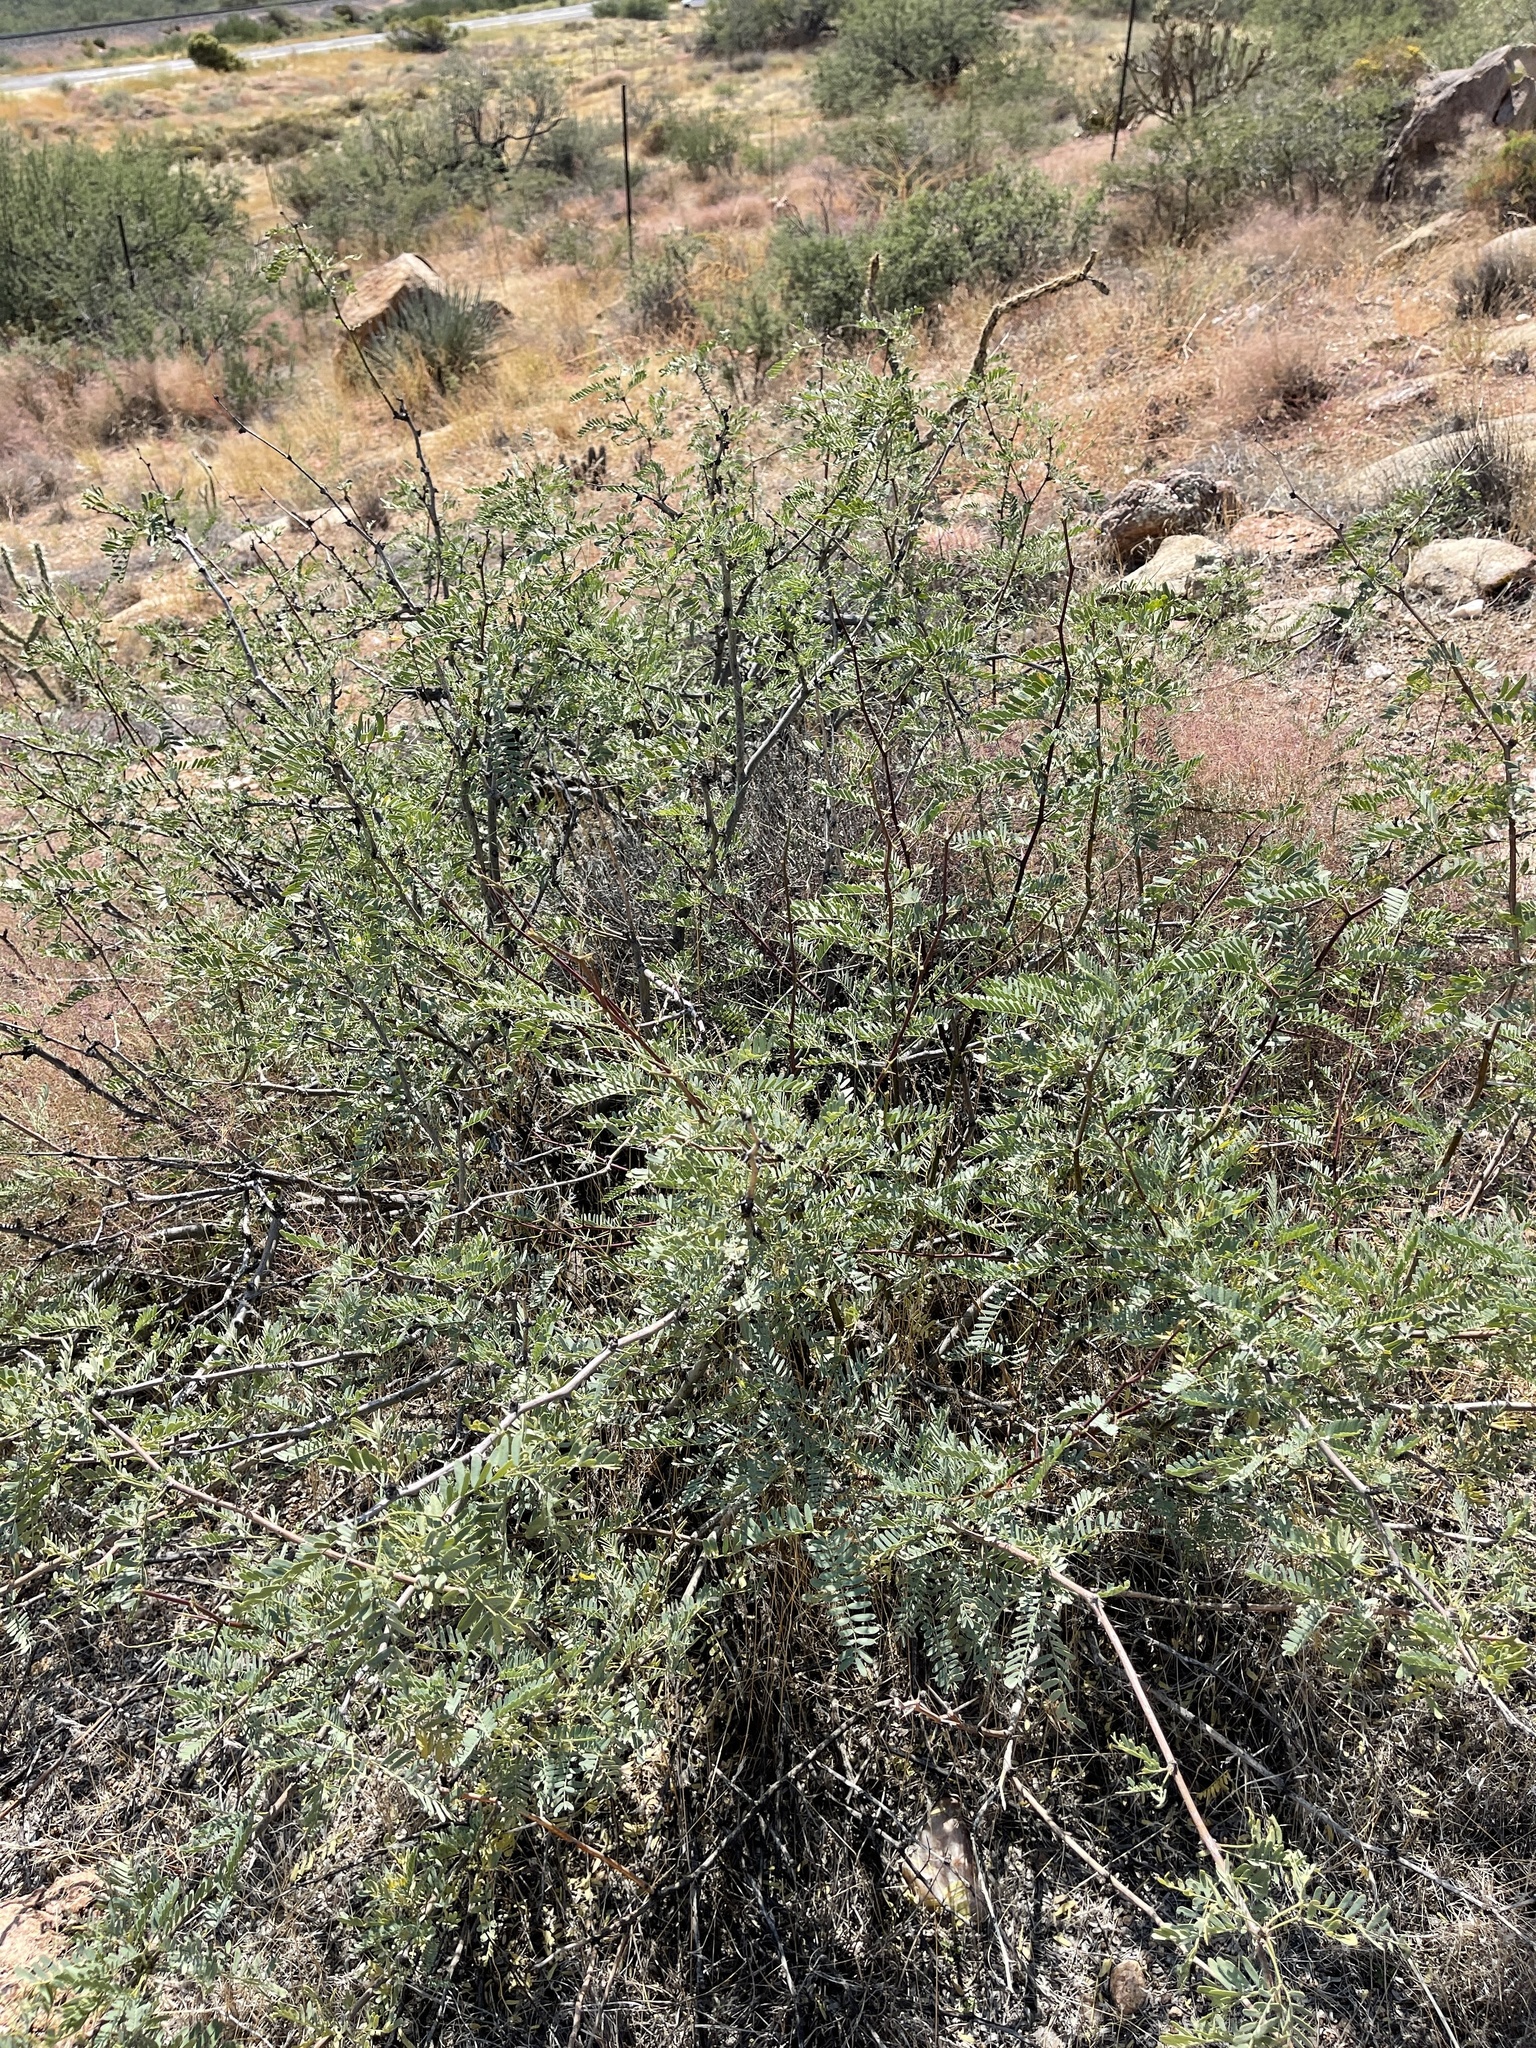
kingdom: Plantae
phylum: Tracheophyta
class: Magnoliopsida
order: Fabales
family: Fabaceae
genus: Prosopis
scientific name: Prosopis glandulosa
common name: Honey mesquite
